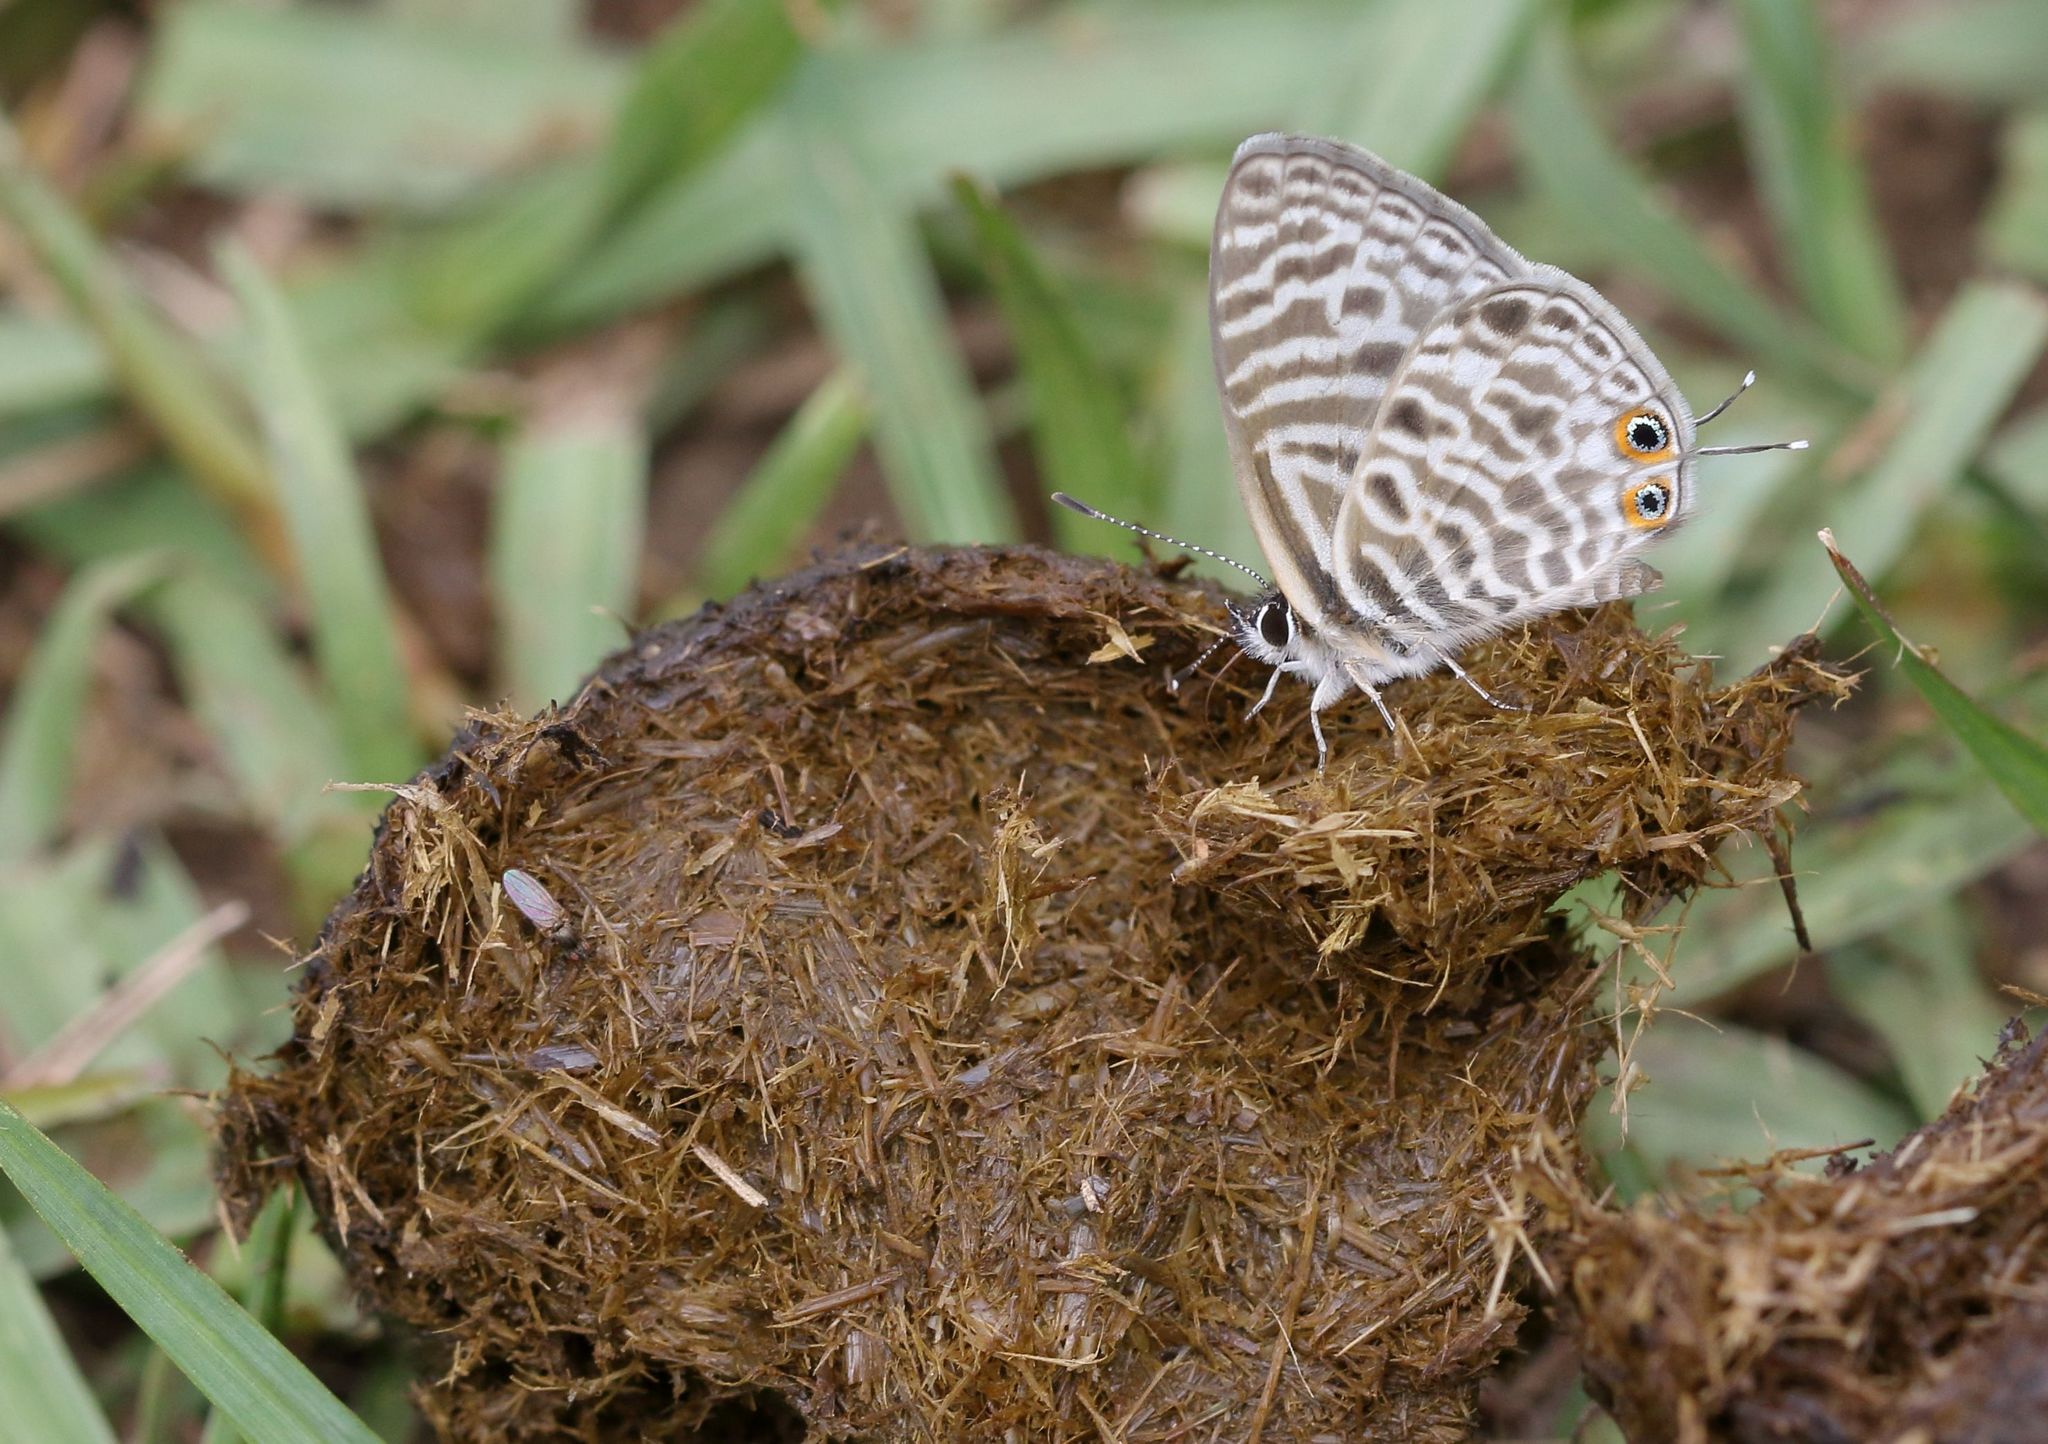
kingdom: Animalia
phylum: Arthropoda
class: Insecta
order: Lepidoptera
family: Lycaenidae
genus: Leptotes
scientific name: Leptotes
